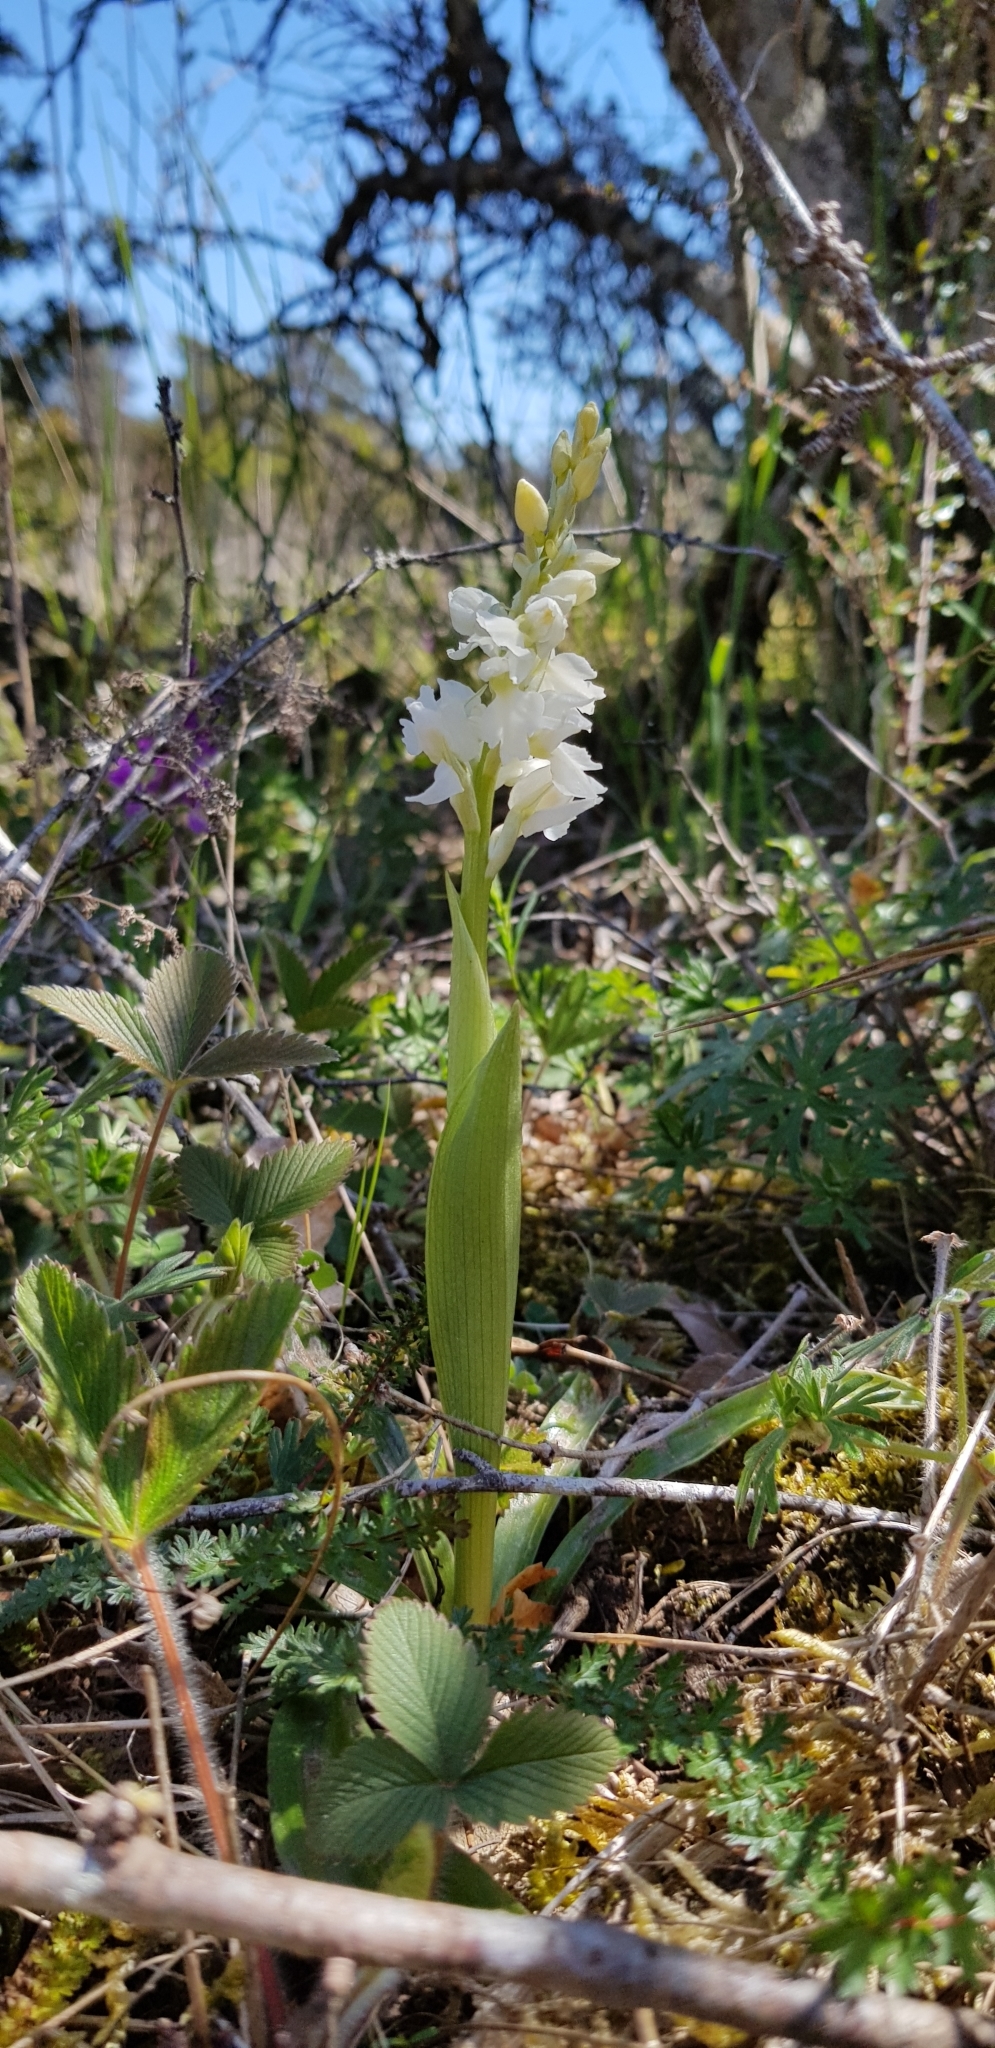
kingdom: Plantae
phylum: Tracheophyta
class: Liliopsida
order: Asparagales
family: Orchidaceae
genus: Orchis
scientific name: Orchis mascula
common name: Early-purple orchid
